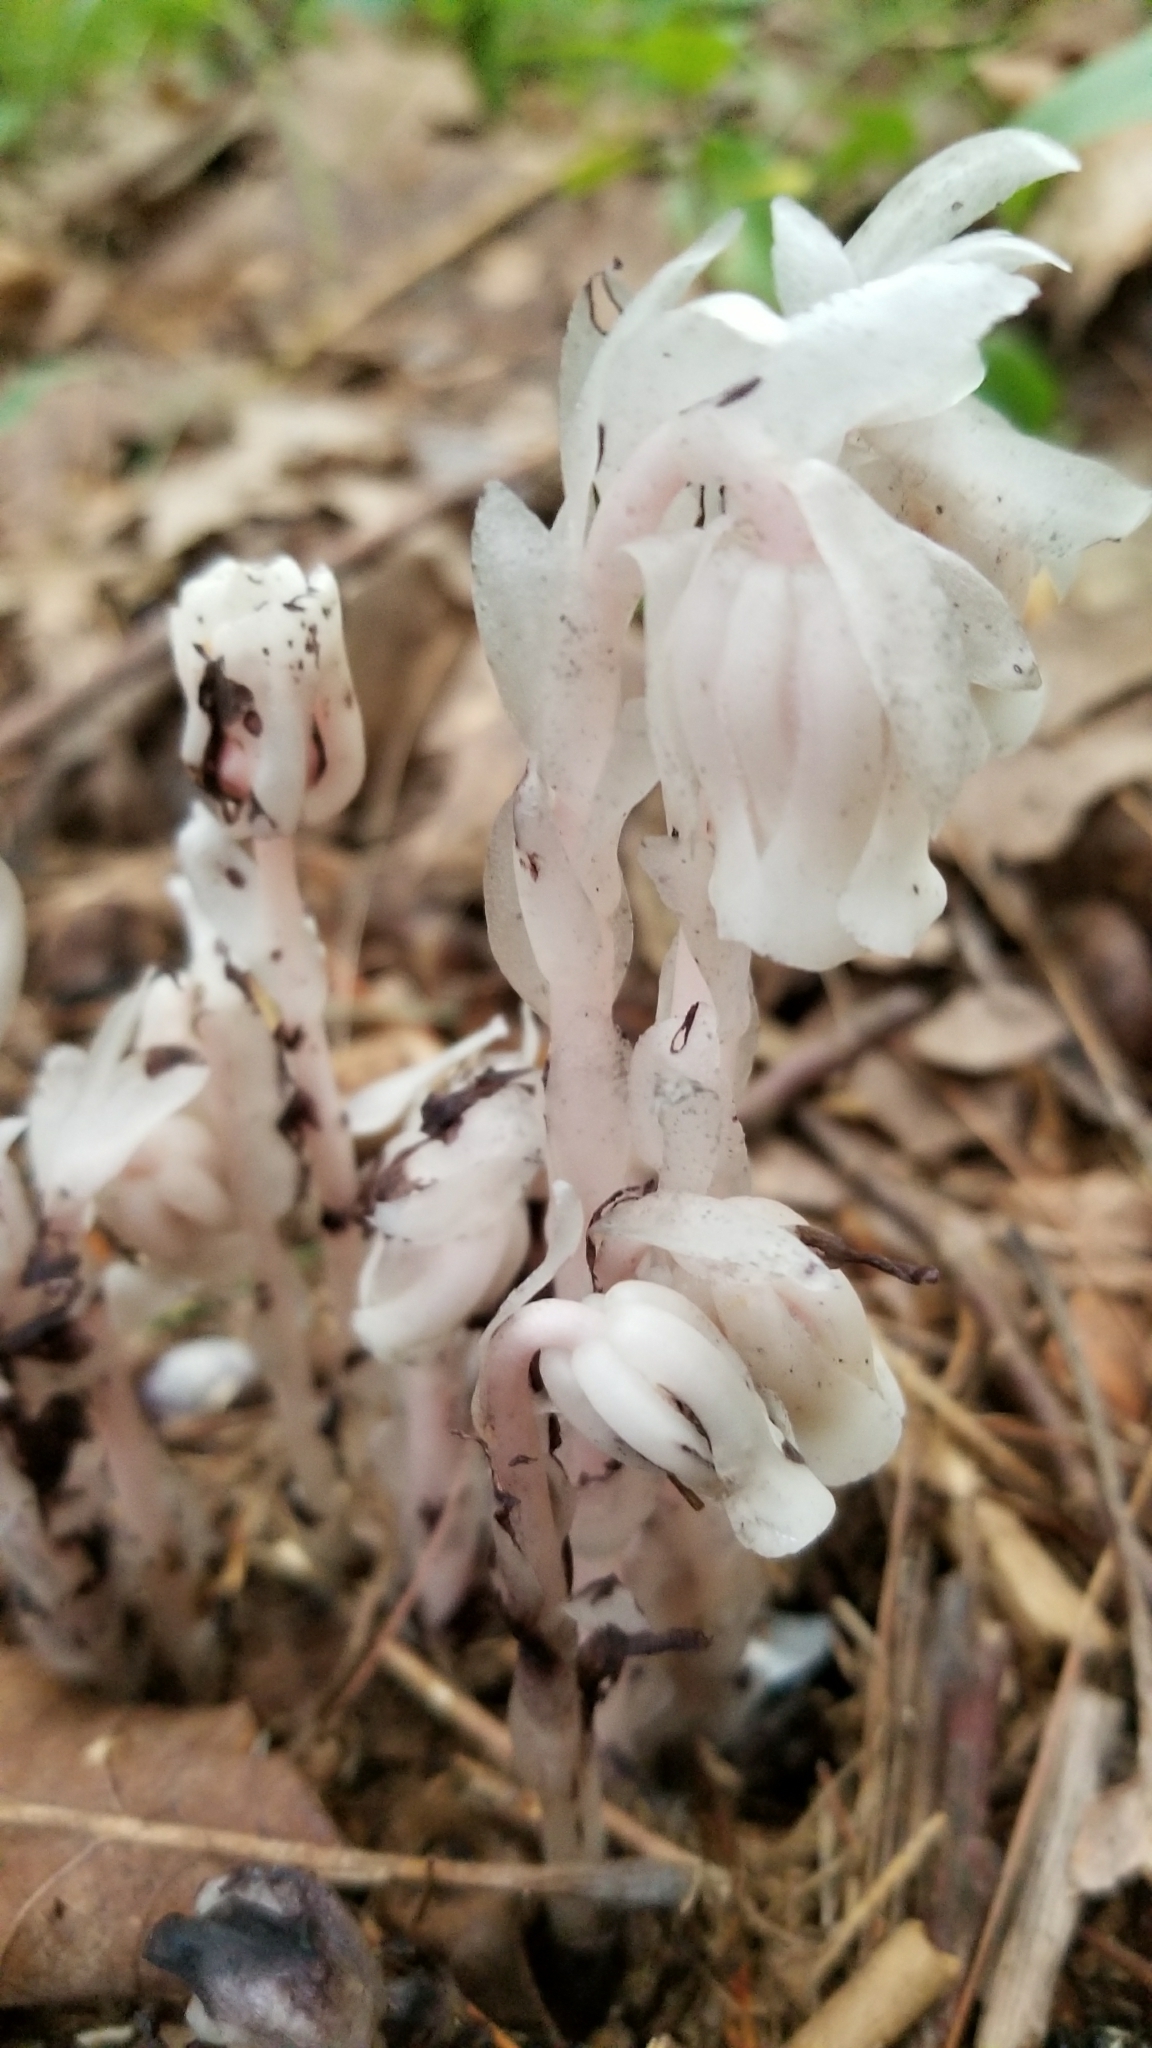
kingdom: Plantae
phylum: Tracheophyta
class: Magnoliopsida
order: Ericales
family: Ericaceae
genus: Monotropa
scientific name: Monotropa uniflora
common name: Convulsion root
